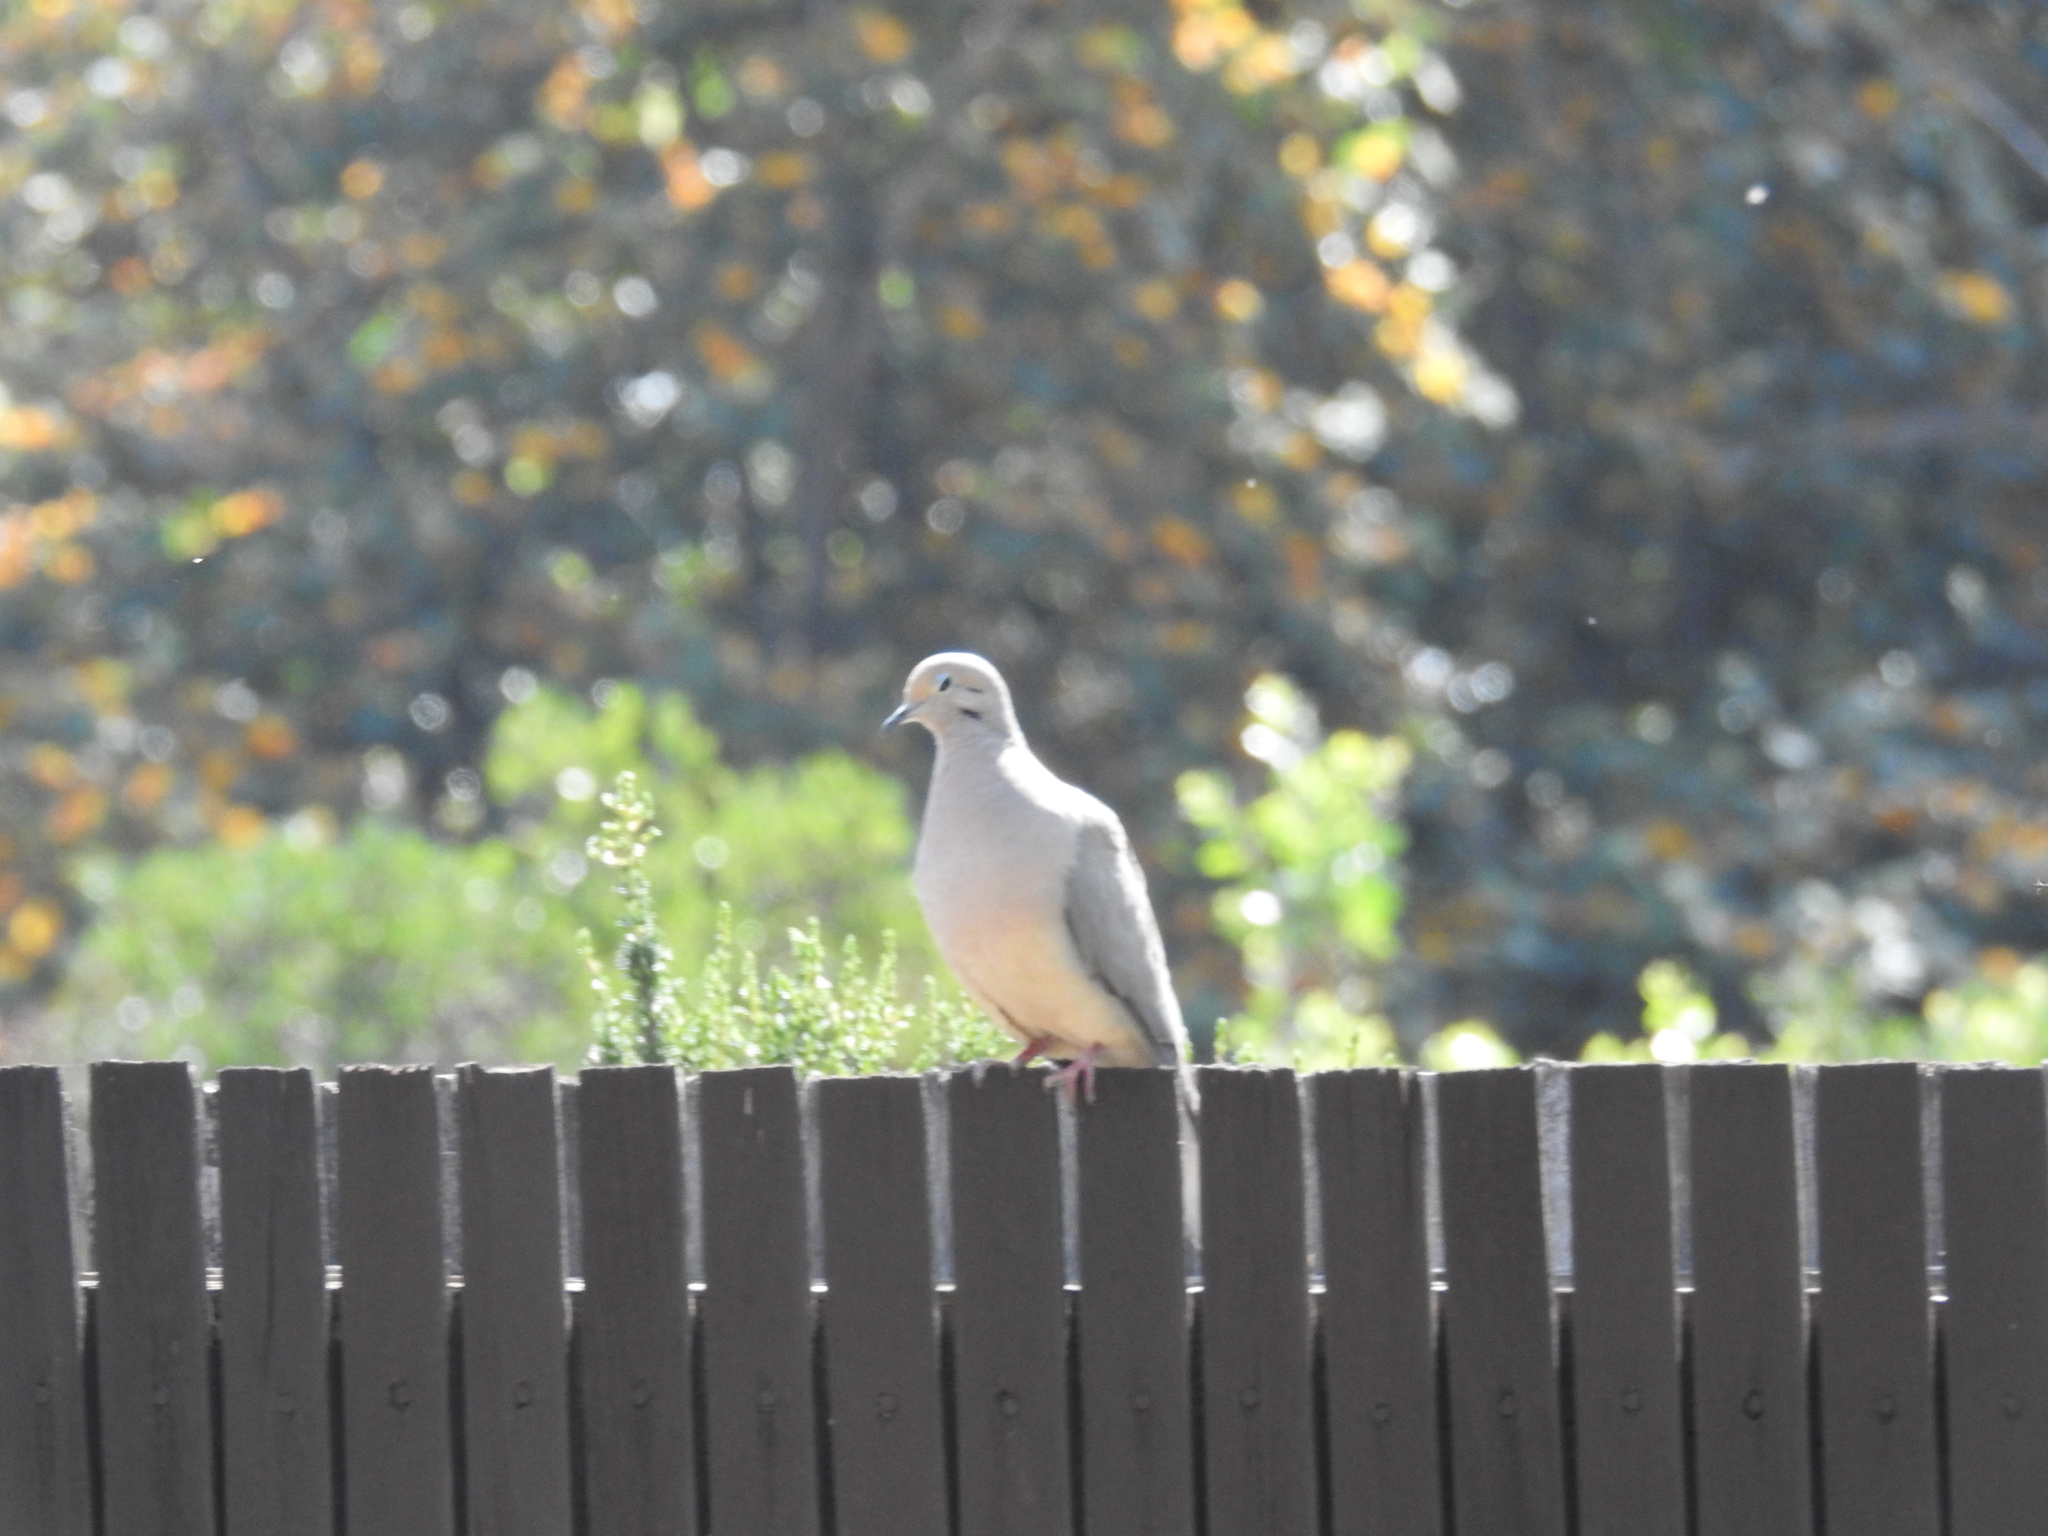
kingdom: Animalia
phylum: Chordata
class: Aves
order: Columbiformes
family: Columbidae
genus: Zenaida
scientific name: Zenaida macroura
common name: Mourning dove
